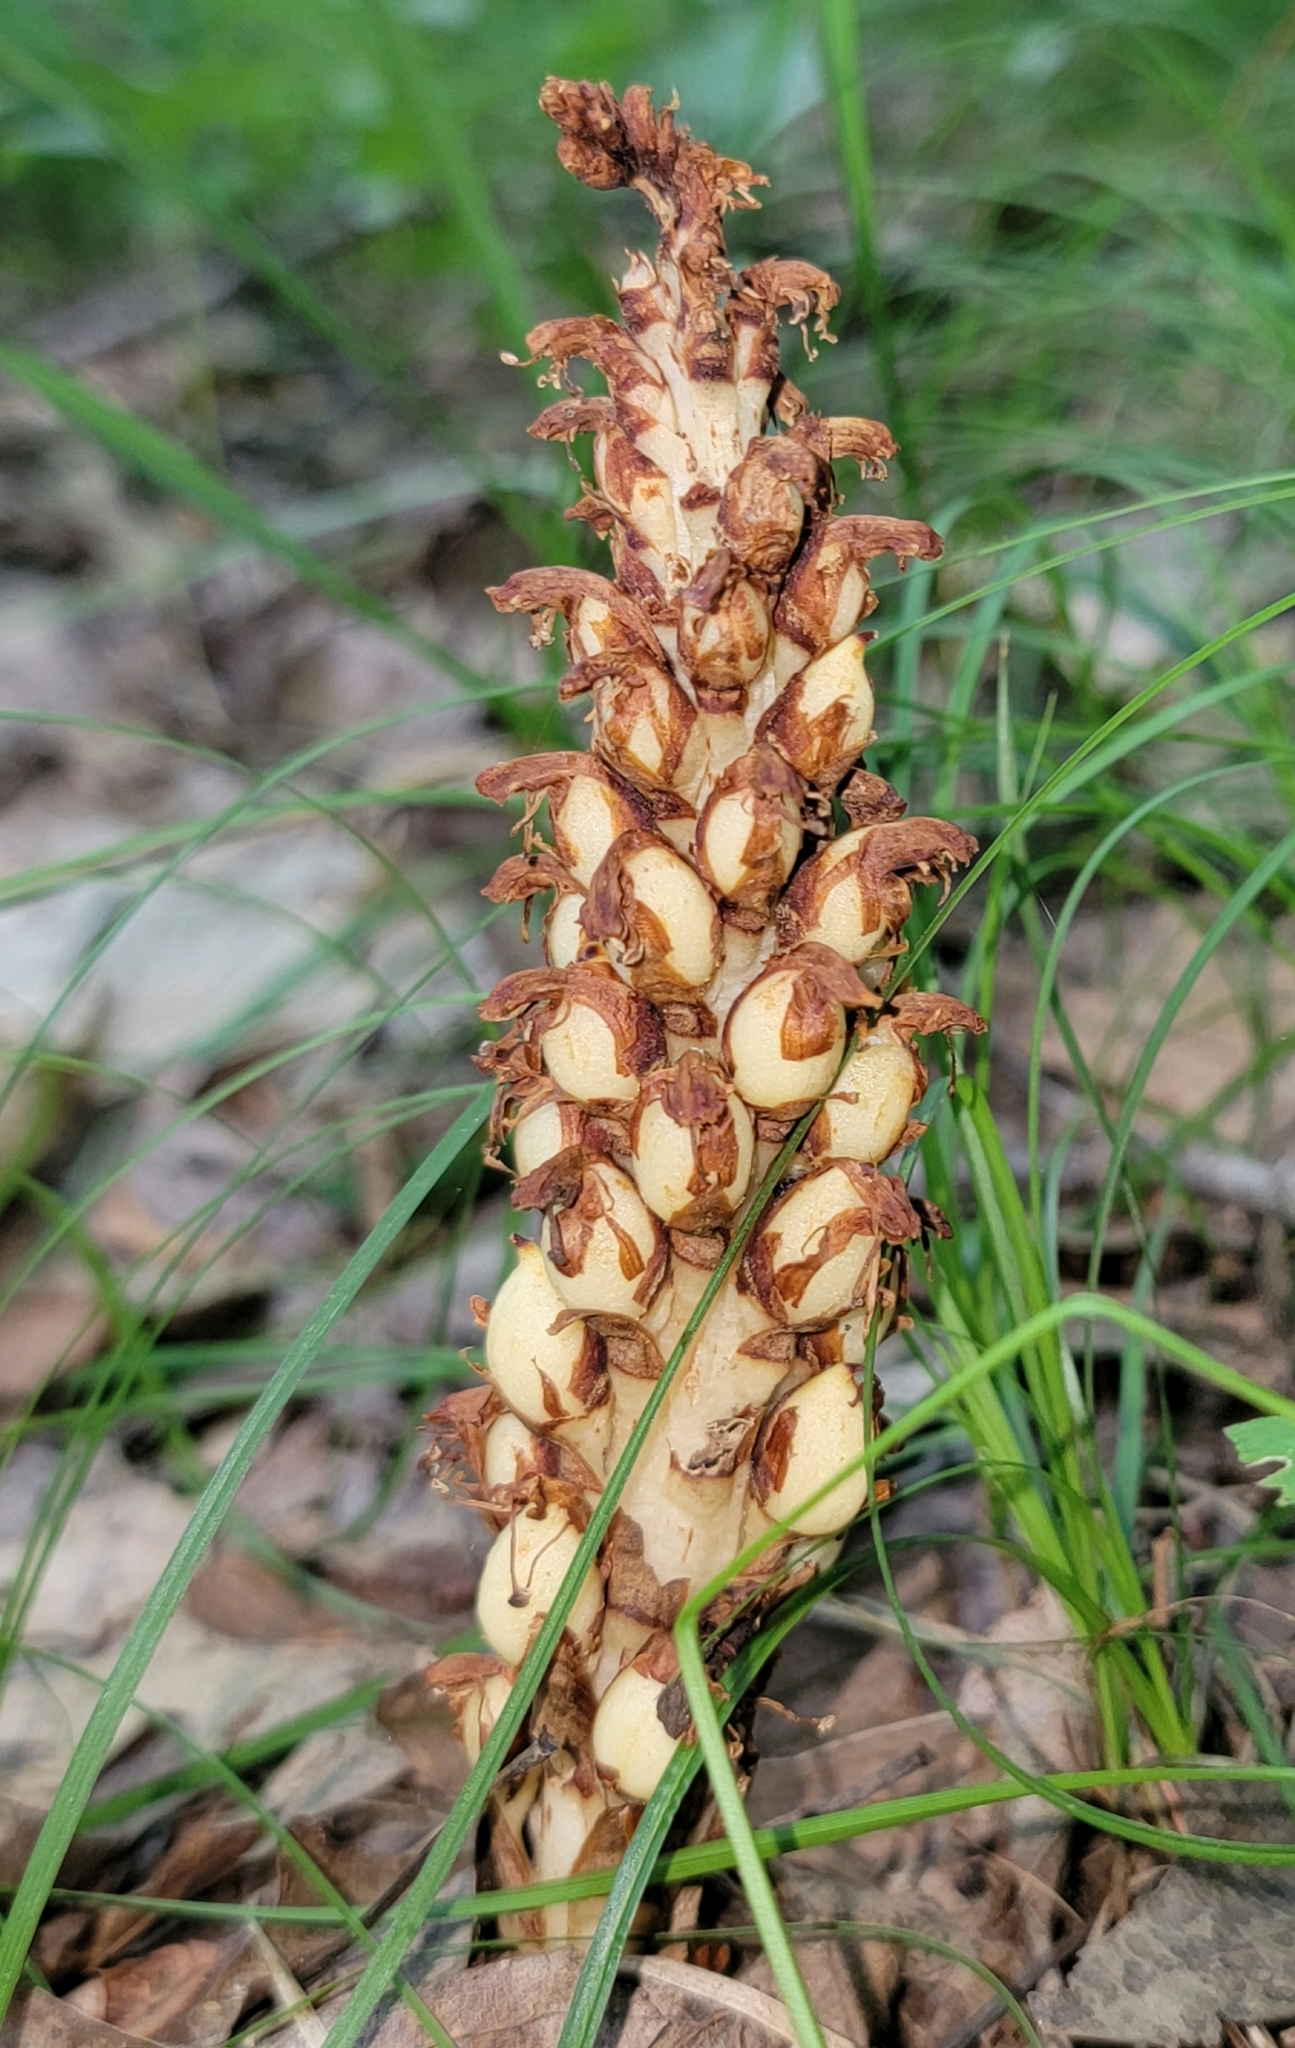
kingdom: Plantae
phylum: Tracheophyta
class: Magnoliopsida
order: Lamiales
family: Orobanchaceae
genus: Conopholis
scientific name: Conopholis americana
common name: American cancer-root
